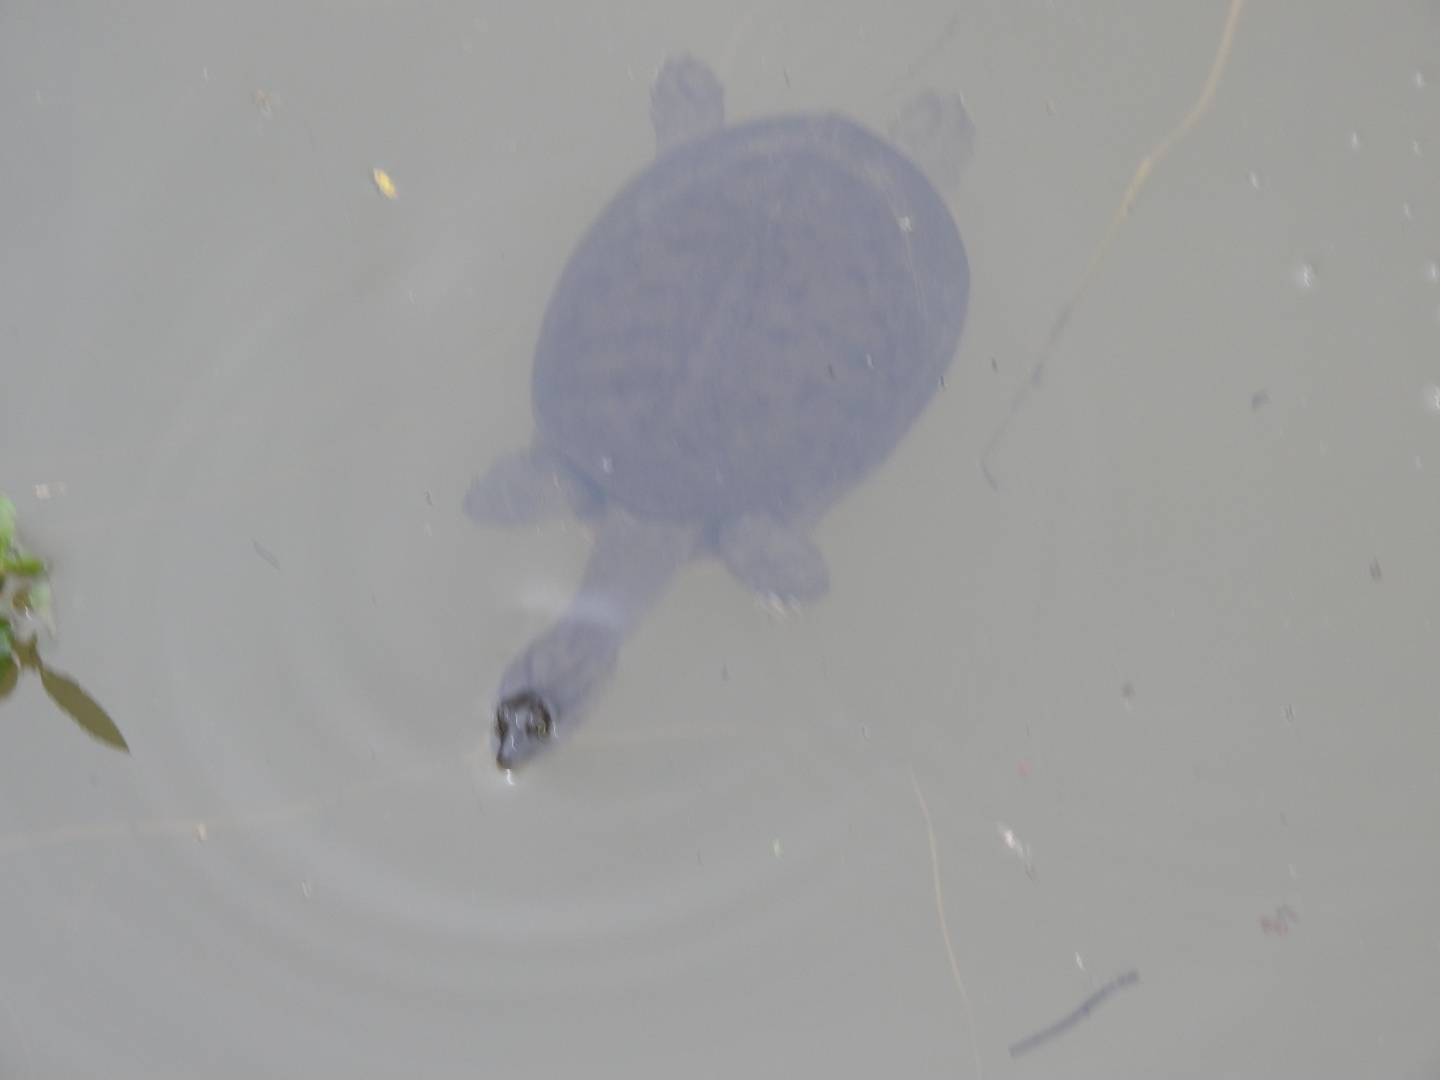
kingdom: Animalia
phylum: Chordata
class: Testudines
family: Trionychidae
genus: Lissemys
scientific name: Lissemys punctata
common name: Indian flap-shelled turtle
